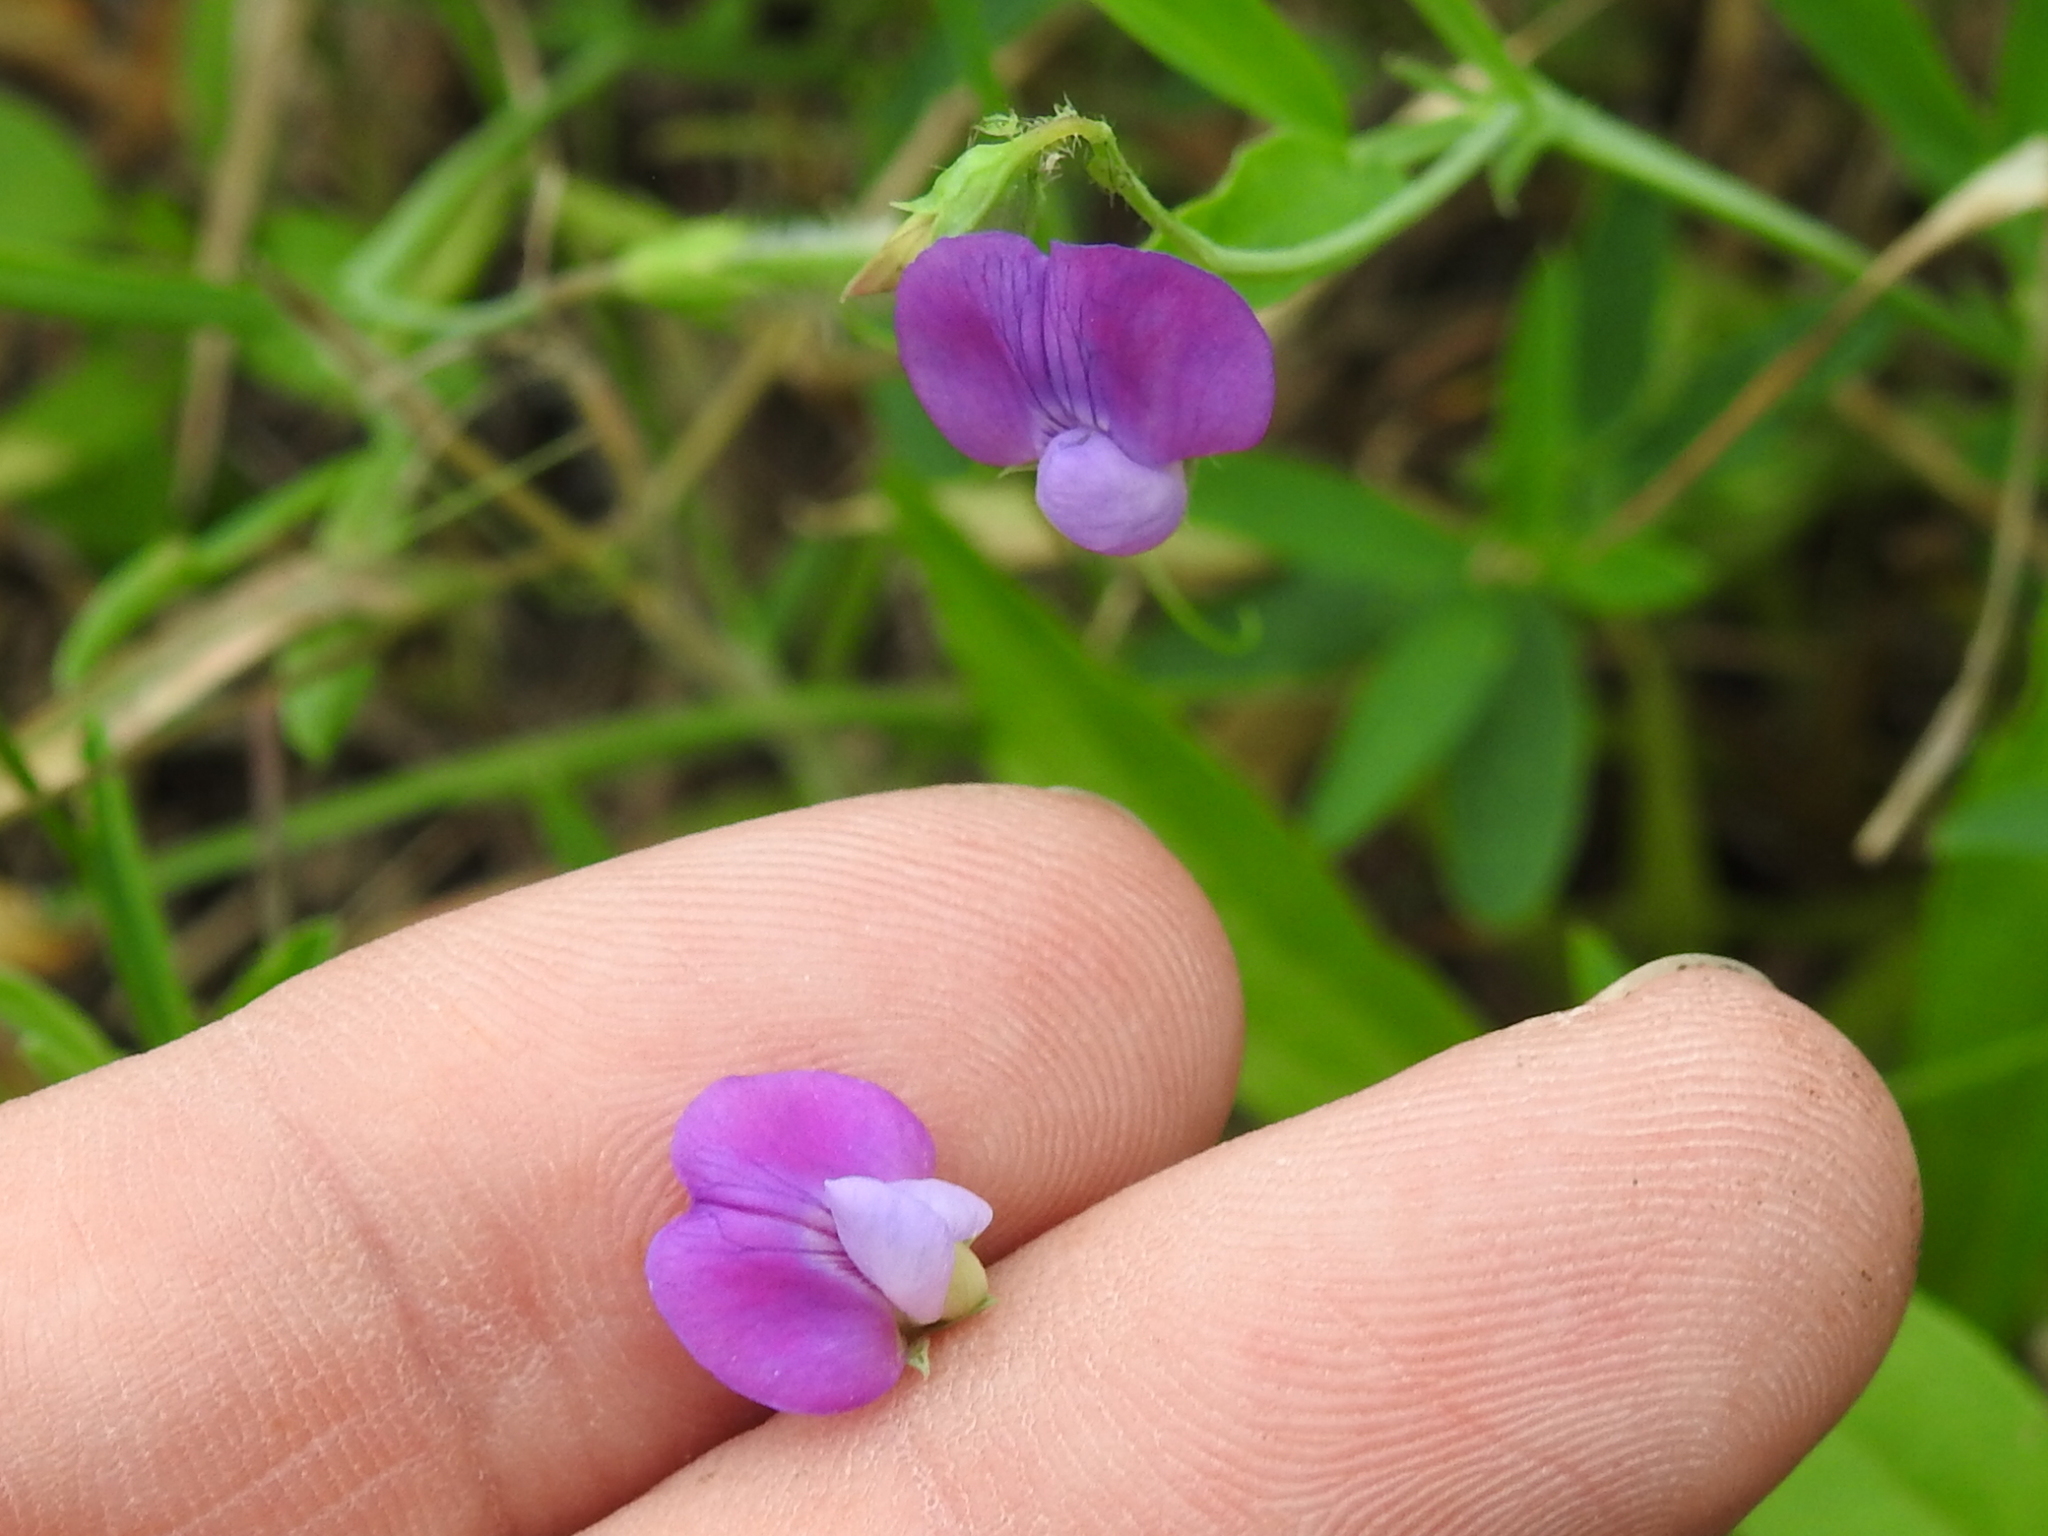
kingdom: Plantae
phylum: Tracheophyta
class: Magnoliopsida
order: Fabales
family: Fabaceae
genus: Lathyrus
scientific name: Lathyrus hirsutus
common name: Hairy vetchling
